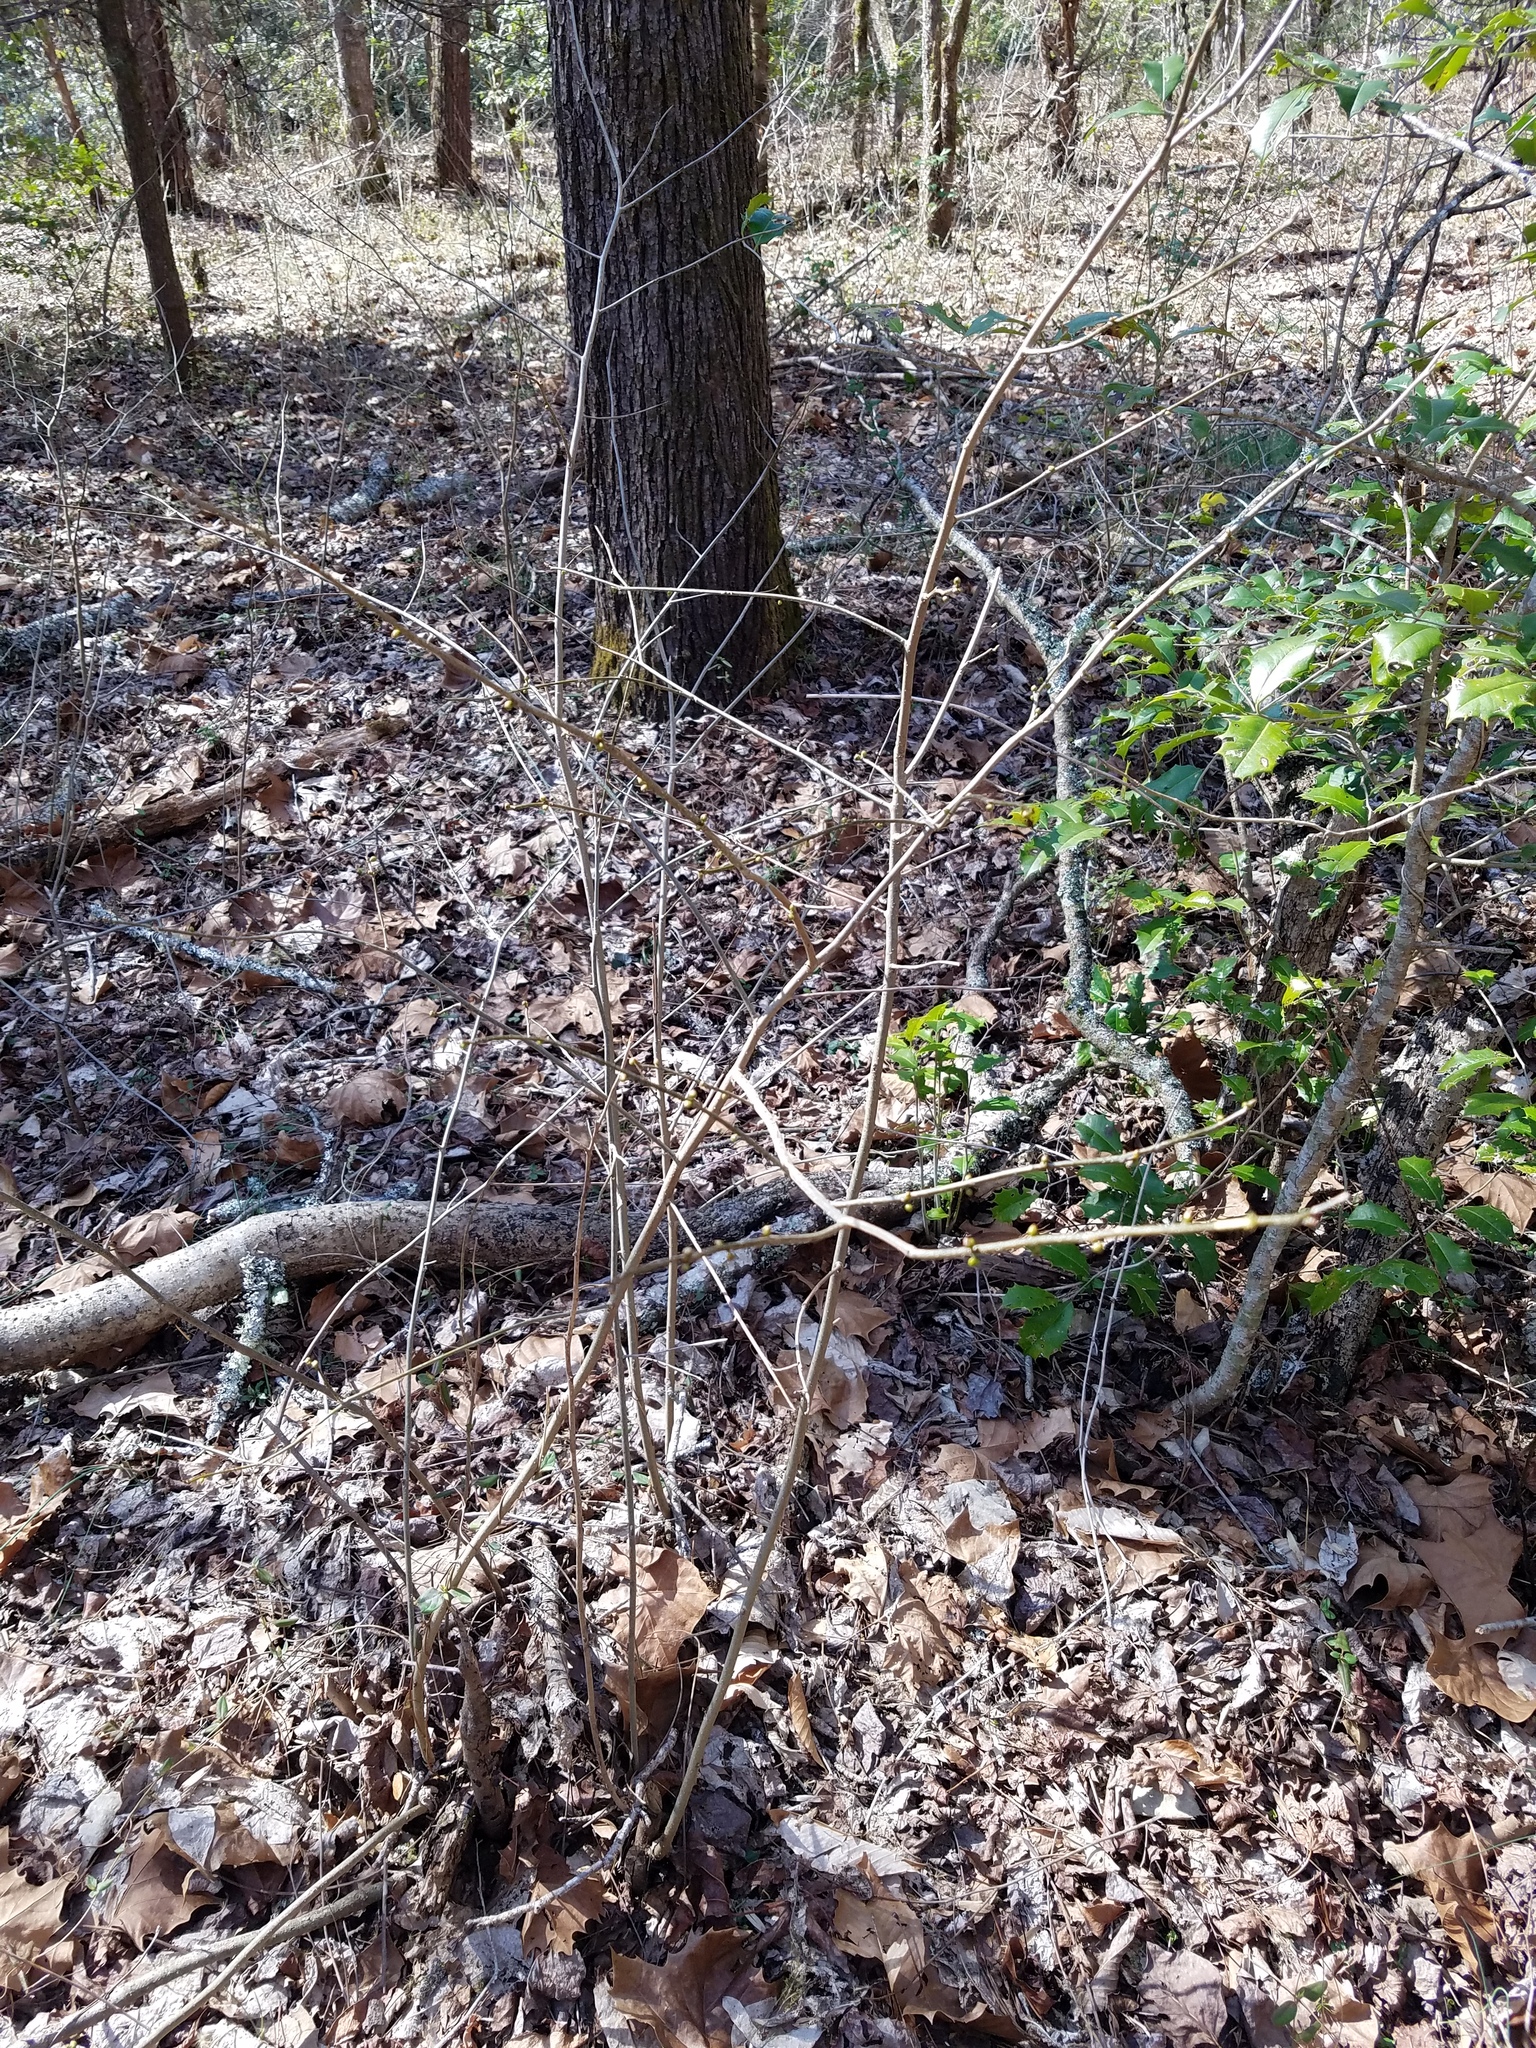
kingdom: Plantae
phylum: Tracheophyta
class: Magnoliopsida
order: Laurales
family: Lauraceae
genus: Lindera
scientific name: Lindera benzoin
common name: Spicebush
